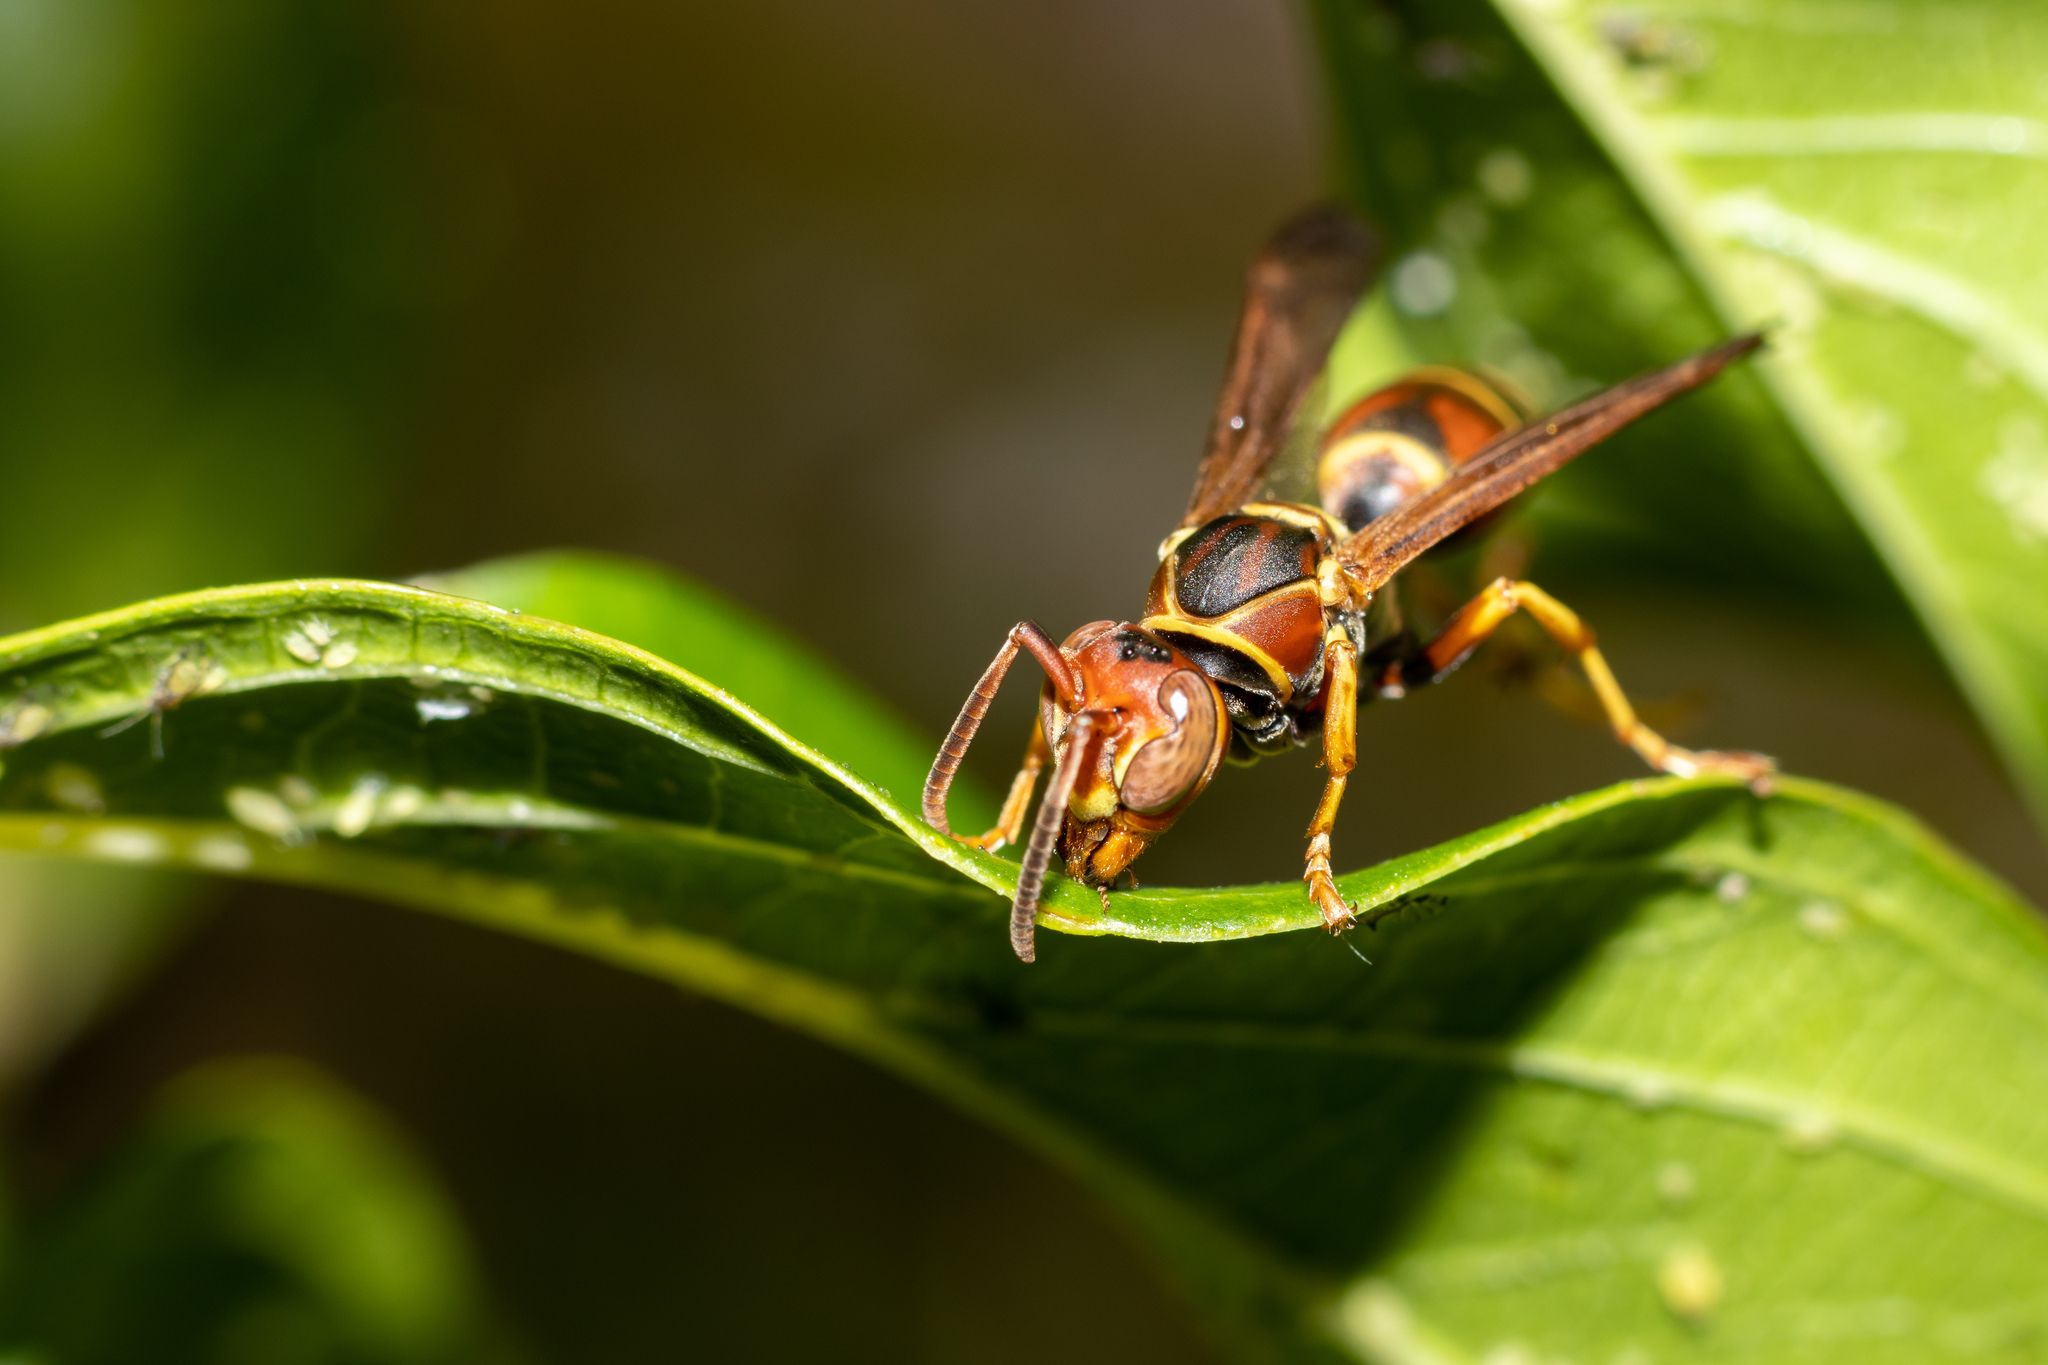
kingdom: Animalia
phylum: Arthropoda
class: Insecta
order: Hymenoptera
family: Eumenidae
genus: Polistes
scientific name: Polistes dorsalis
